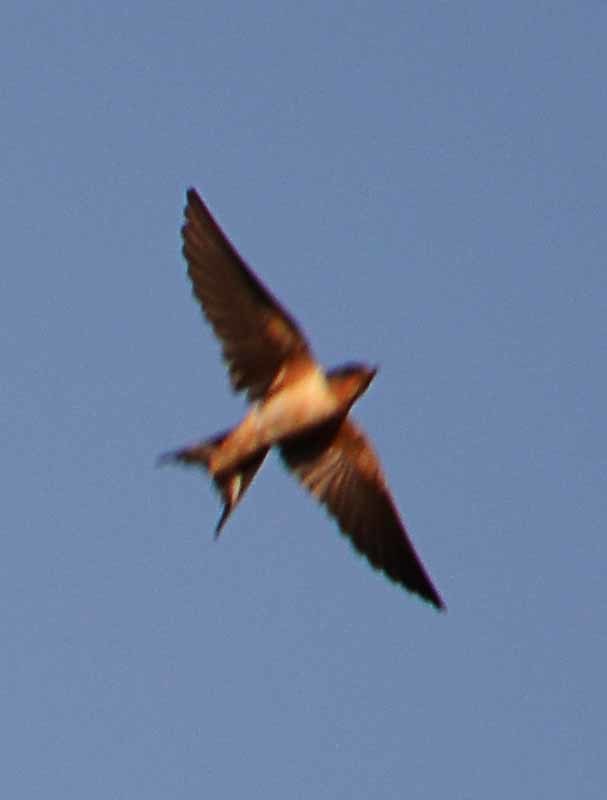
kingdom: Animalia
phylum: Chordata
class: Aves
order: Passeriformes
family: Hirundinidae
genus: Hirundo
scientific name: Hirundo rustica
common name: Barn swallow
